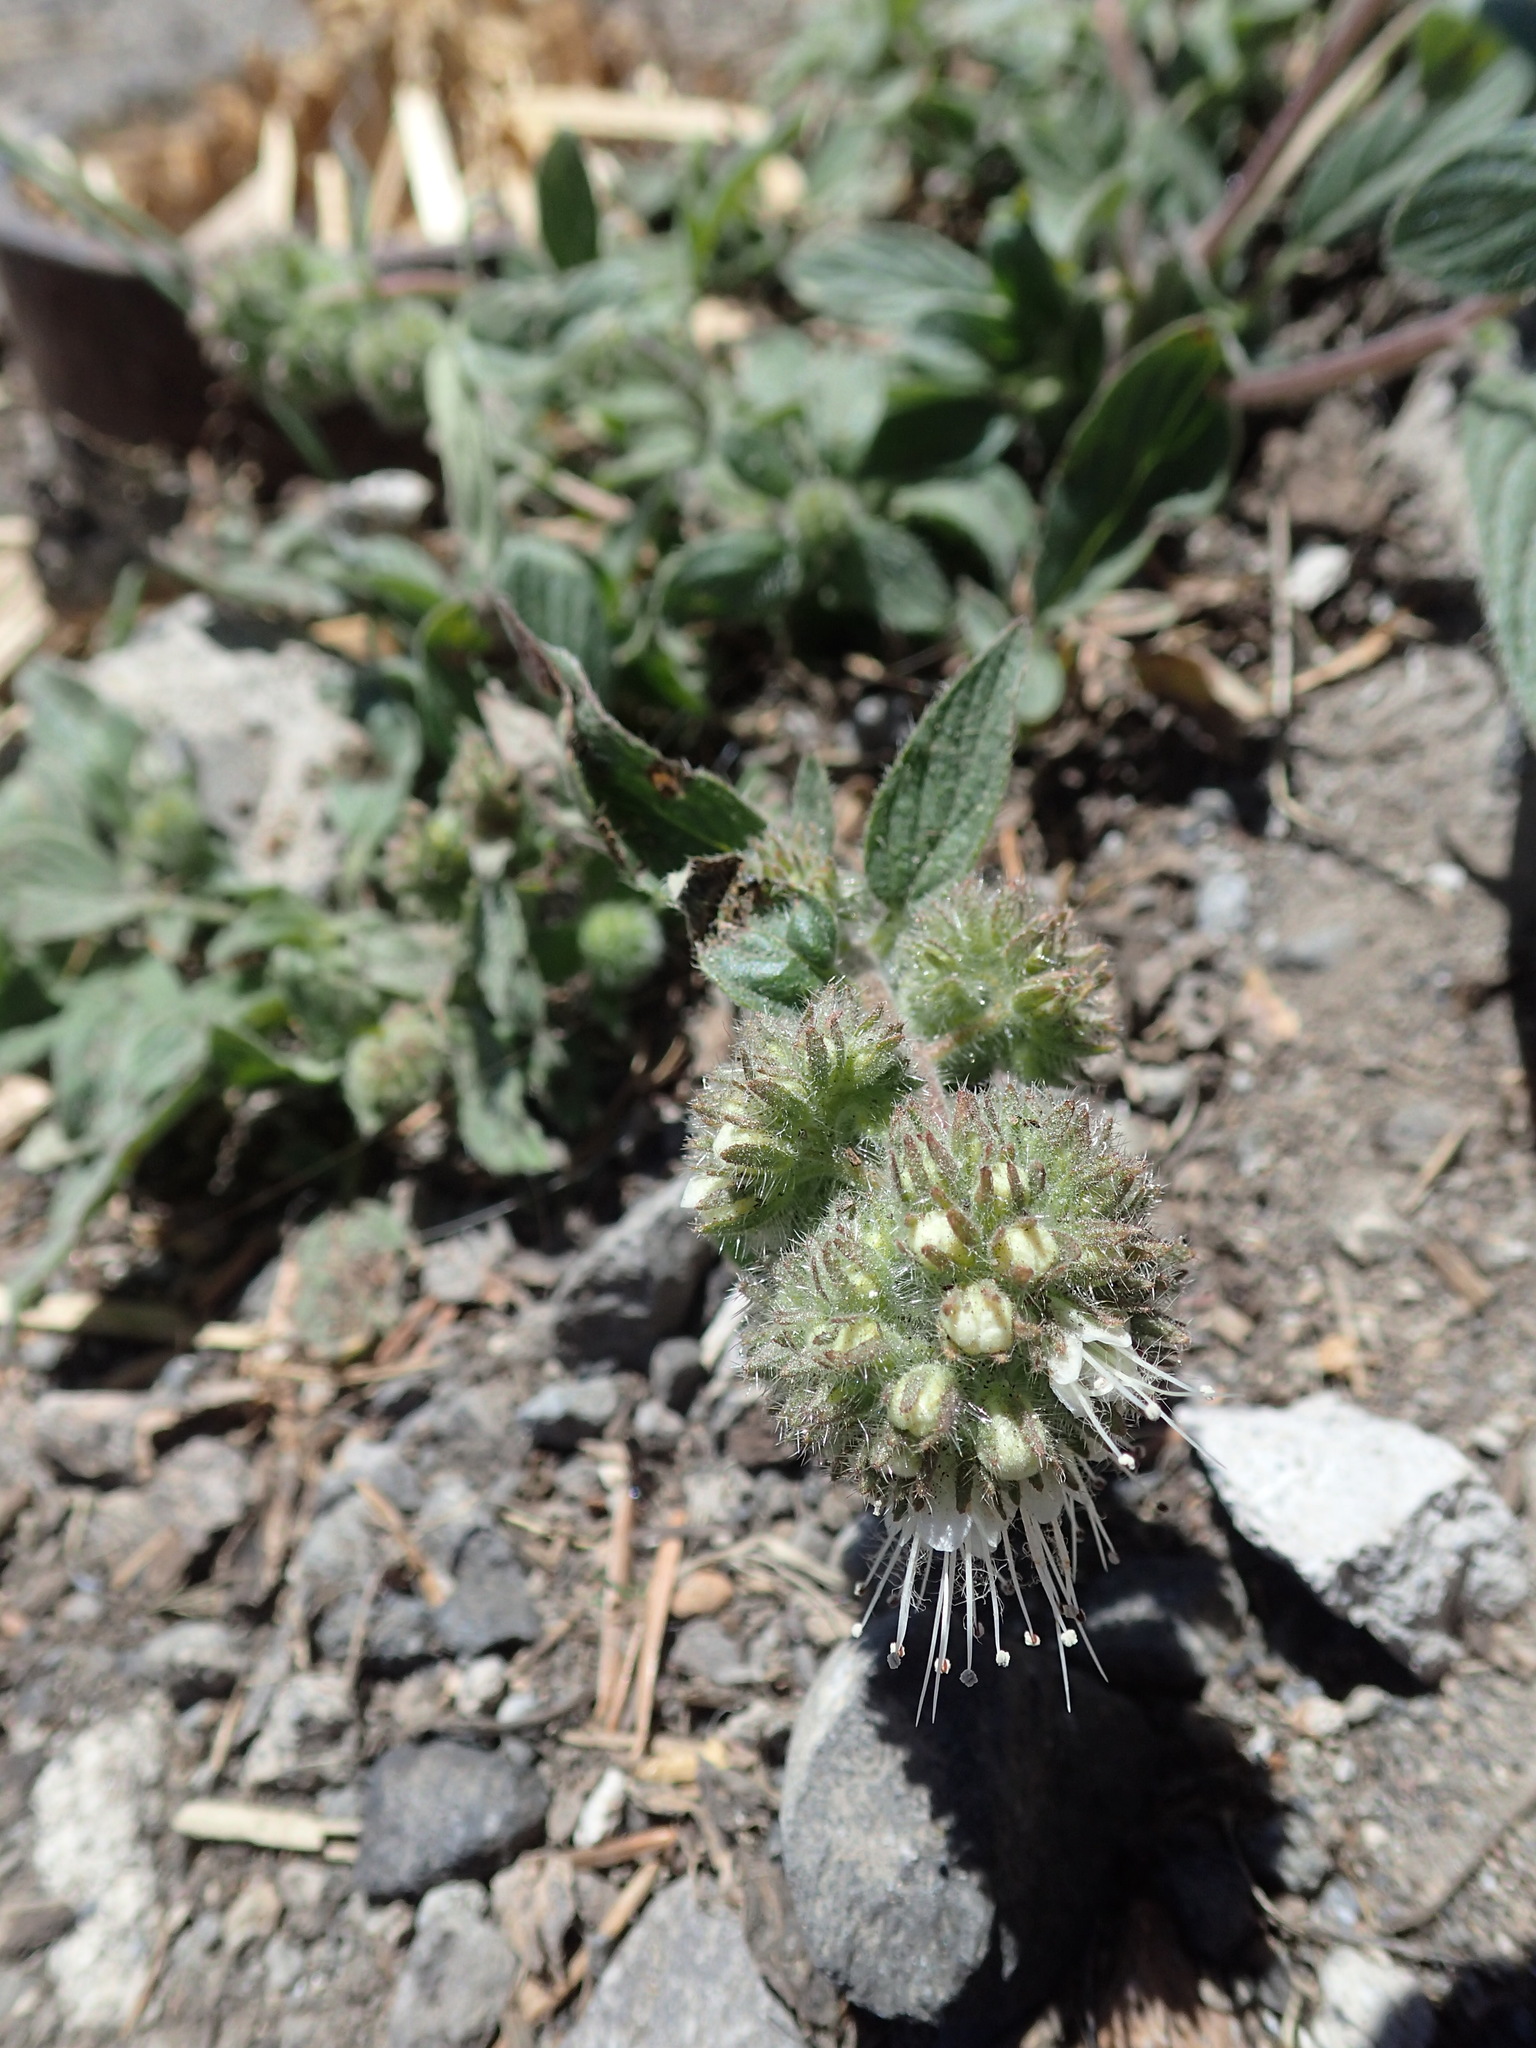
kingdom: Plantae
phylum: Tracheophyta
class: Magnoliopsida
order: Boraginales
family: Hydrophyllaceae
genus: Phacelia
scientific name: Phacelia hastata
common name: Silver-leaved phacelia
